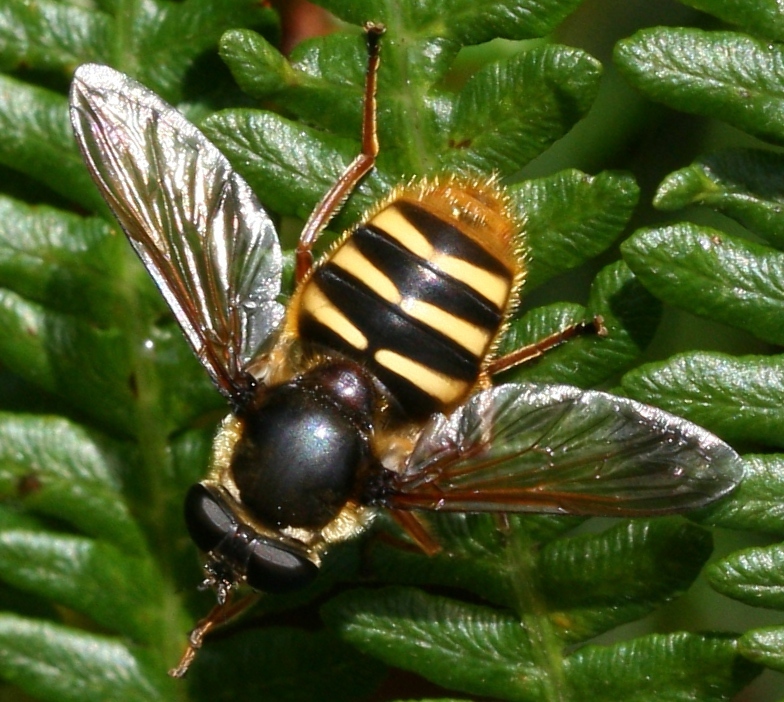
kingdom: Animalia
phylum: Arthropoda
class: Insecta
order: Diptera
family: Syrphidae
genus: Sericomyia
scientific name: Sericomyia silentis
